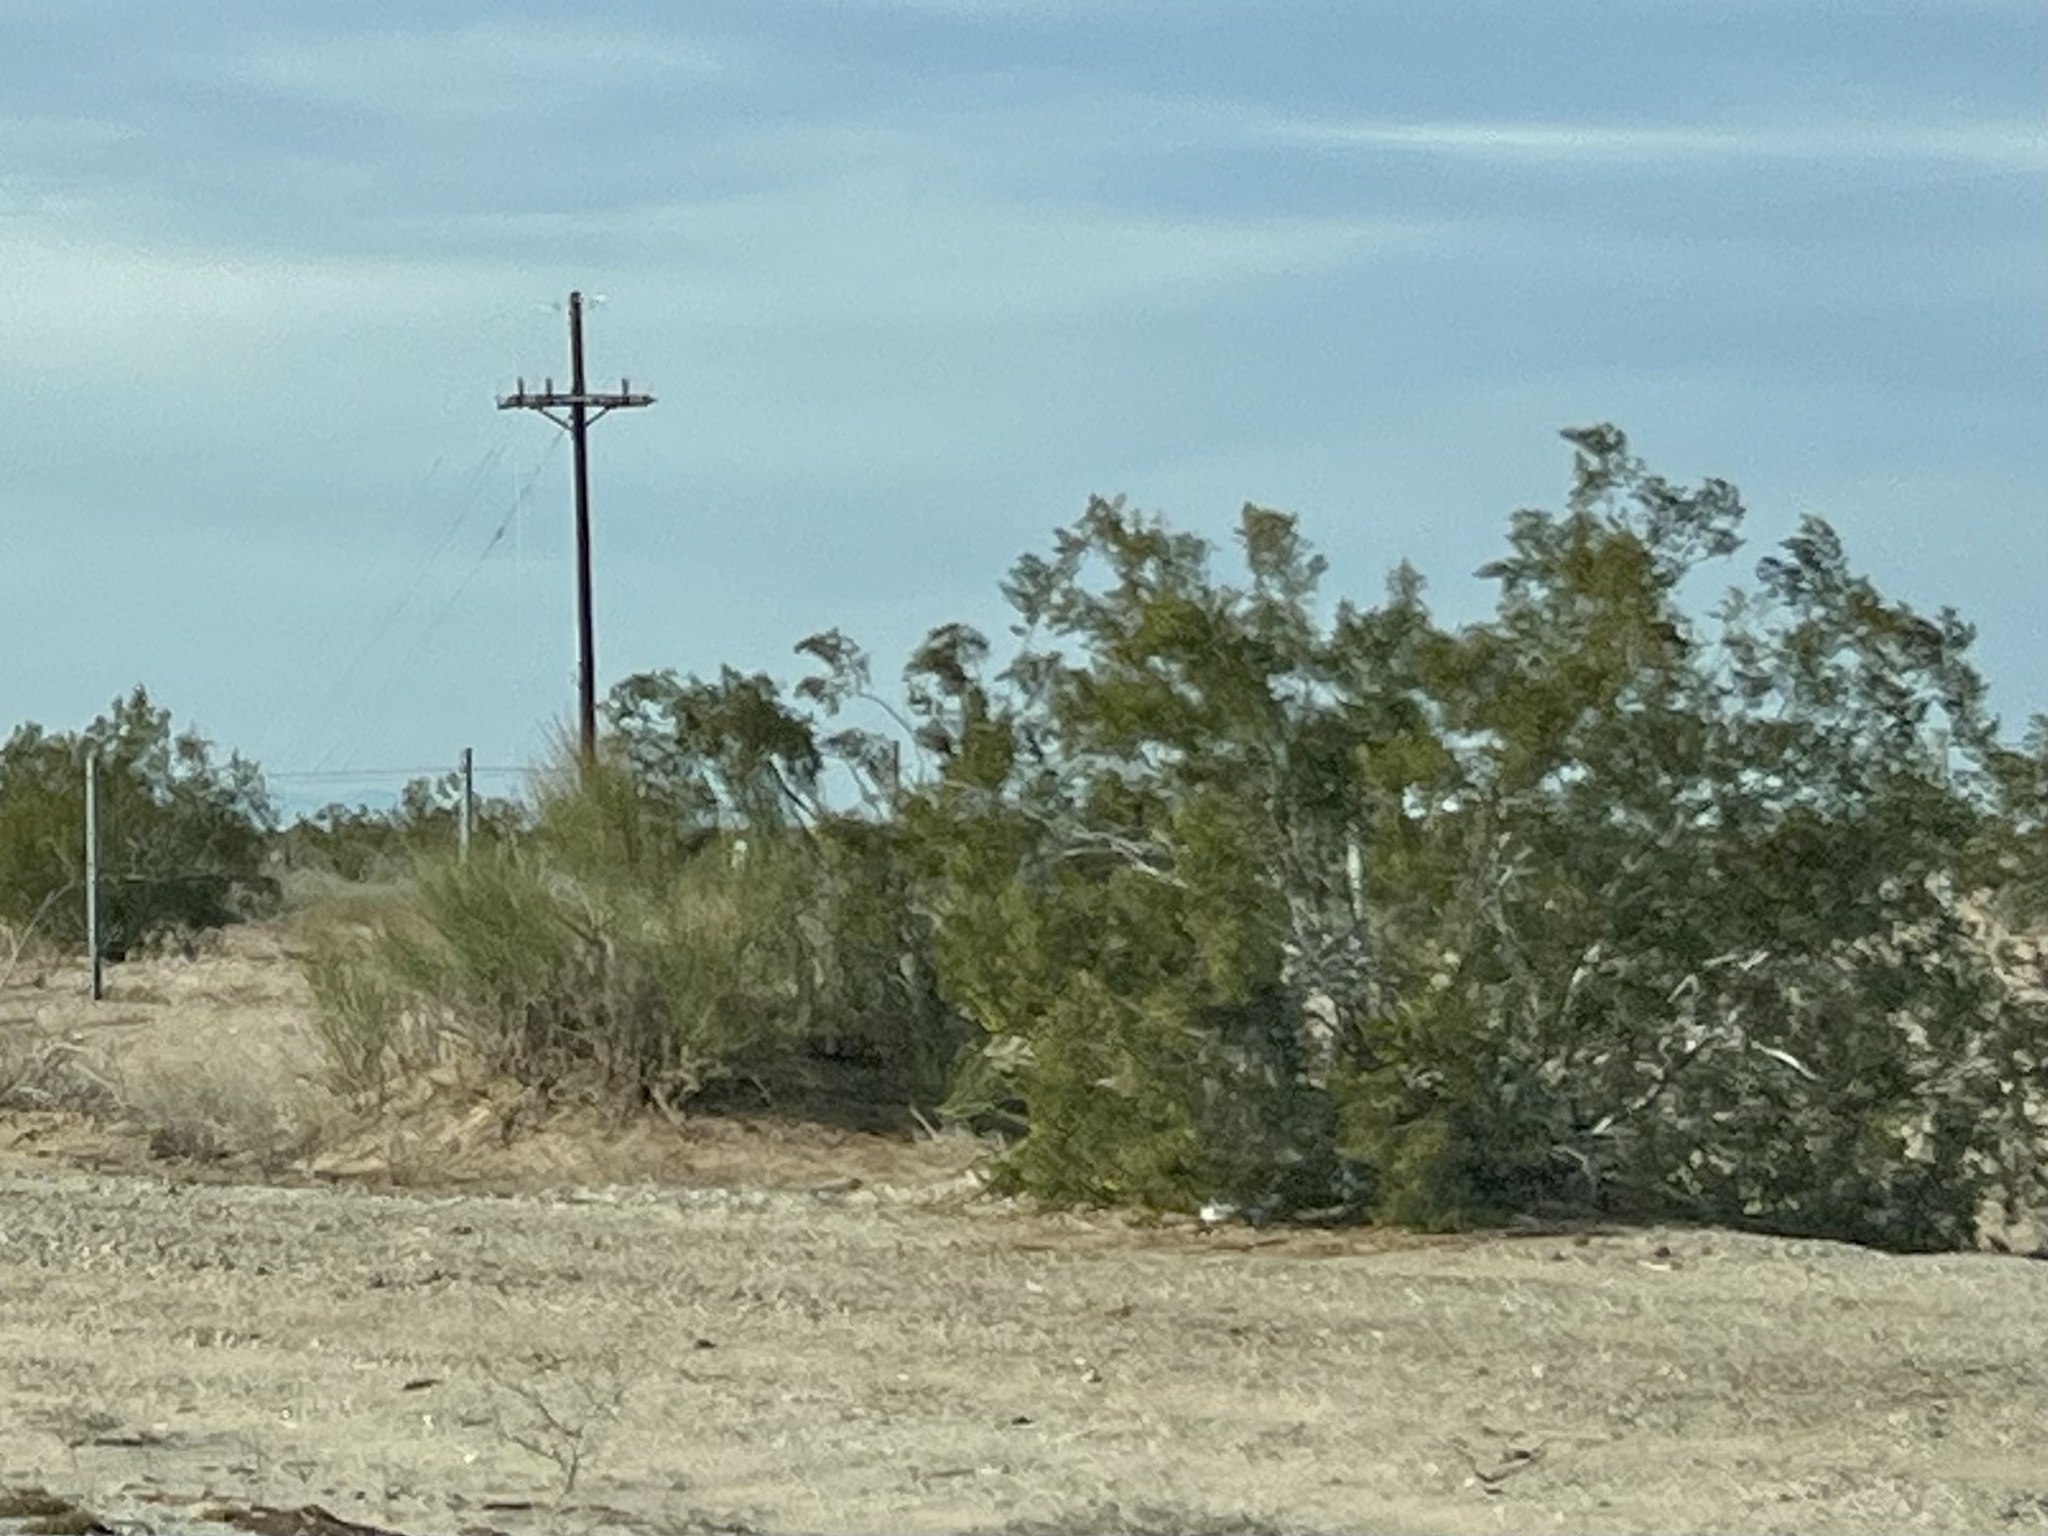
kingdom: Plantae
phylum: Tracheophyta
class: Magnoliopsida
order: Zygophyllales
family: Zygophyllaceae
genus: Larrea
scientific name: Larrea tridentata
